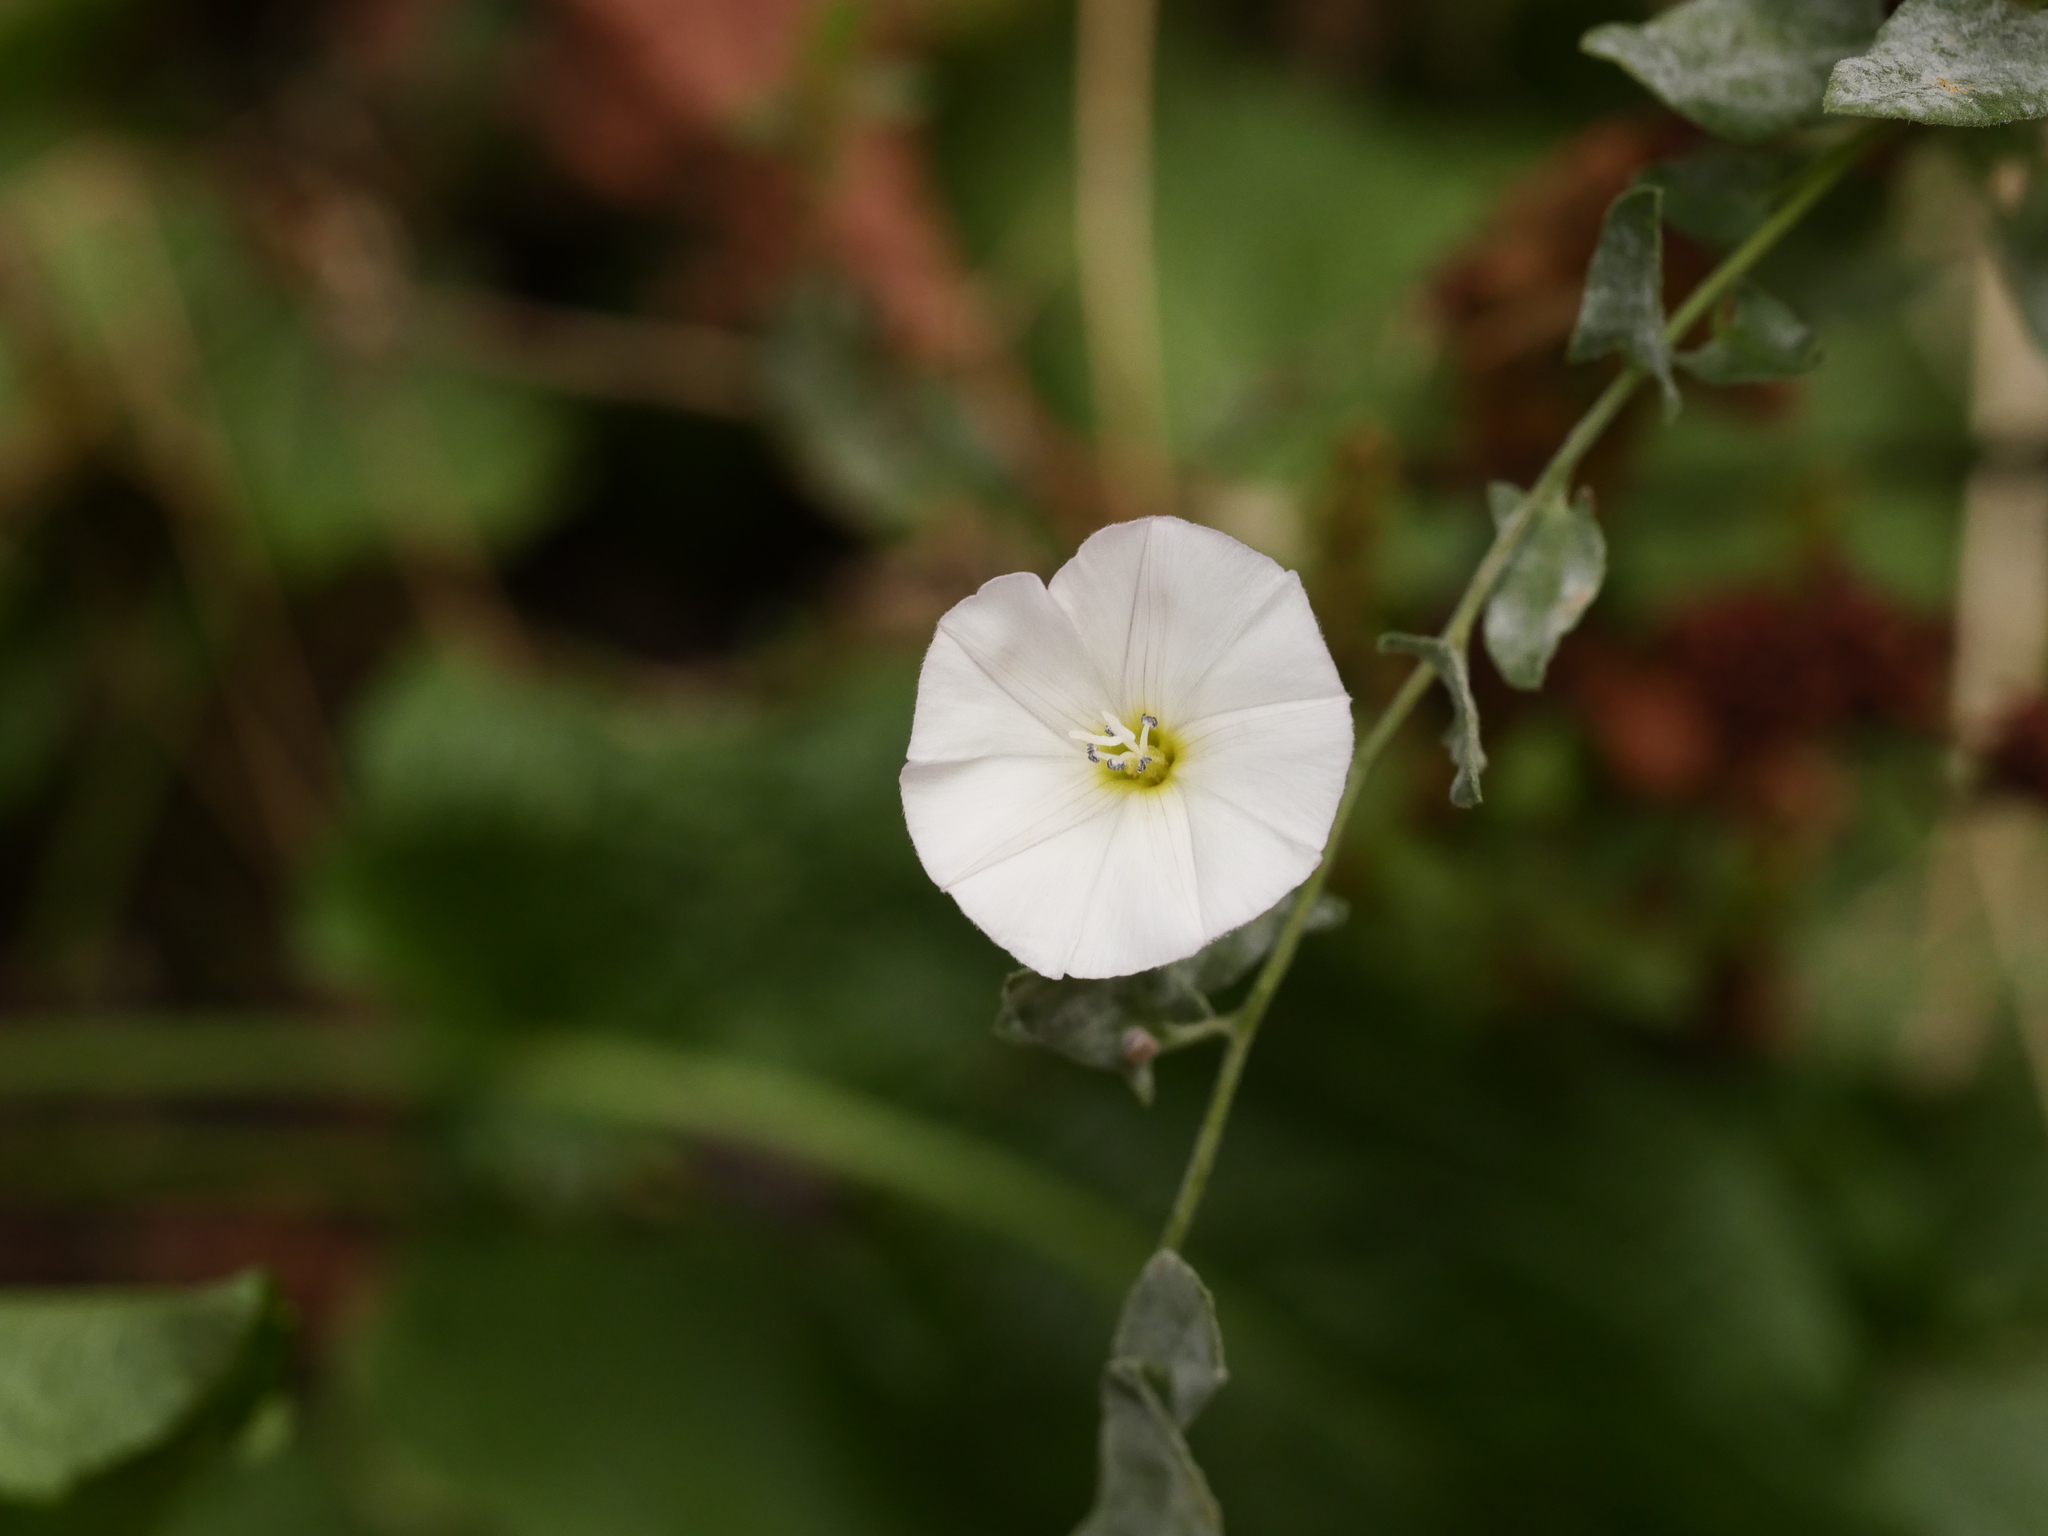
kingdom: Plantae
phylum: Tracheophyta
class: Magnoliopsida
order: Solanales
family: Convolvulaceae
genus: Convolvulus
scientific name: Convolvulus arvensis
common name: Field bindweed
